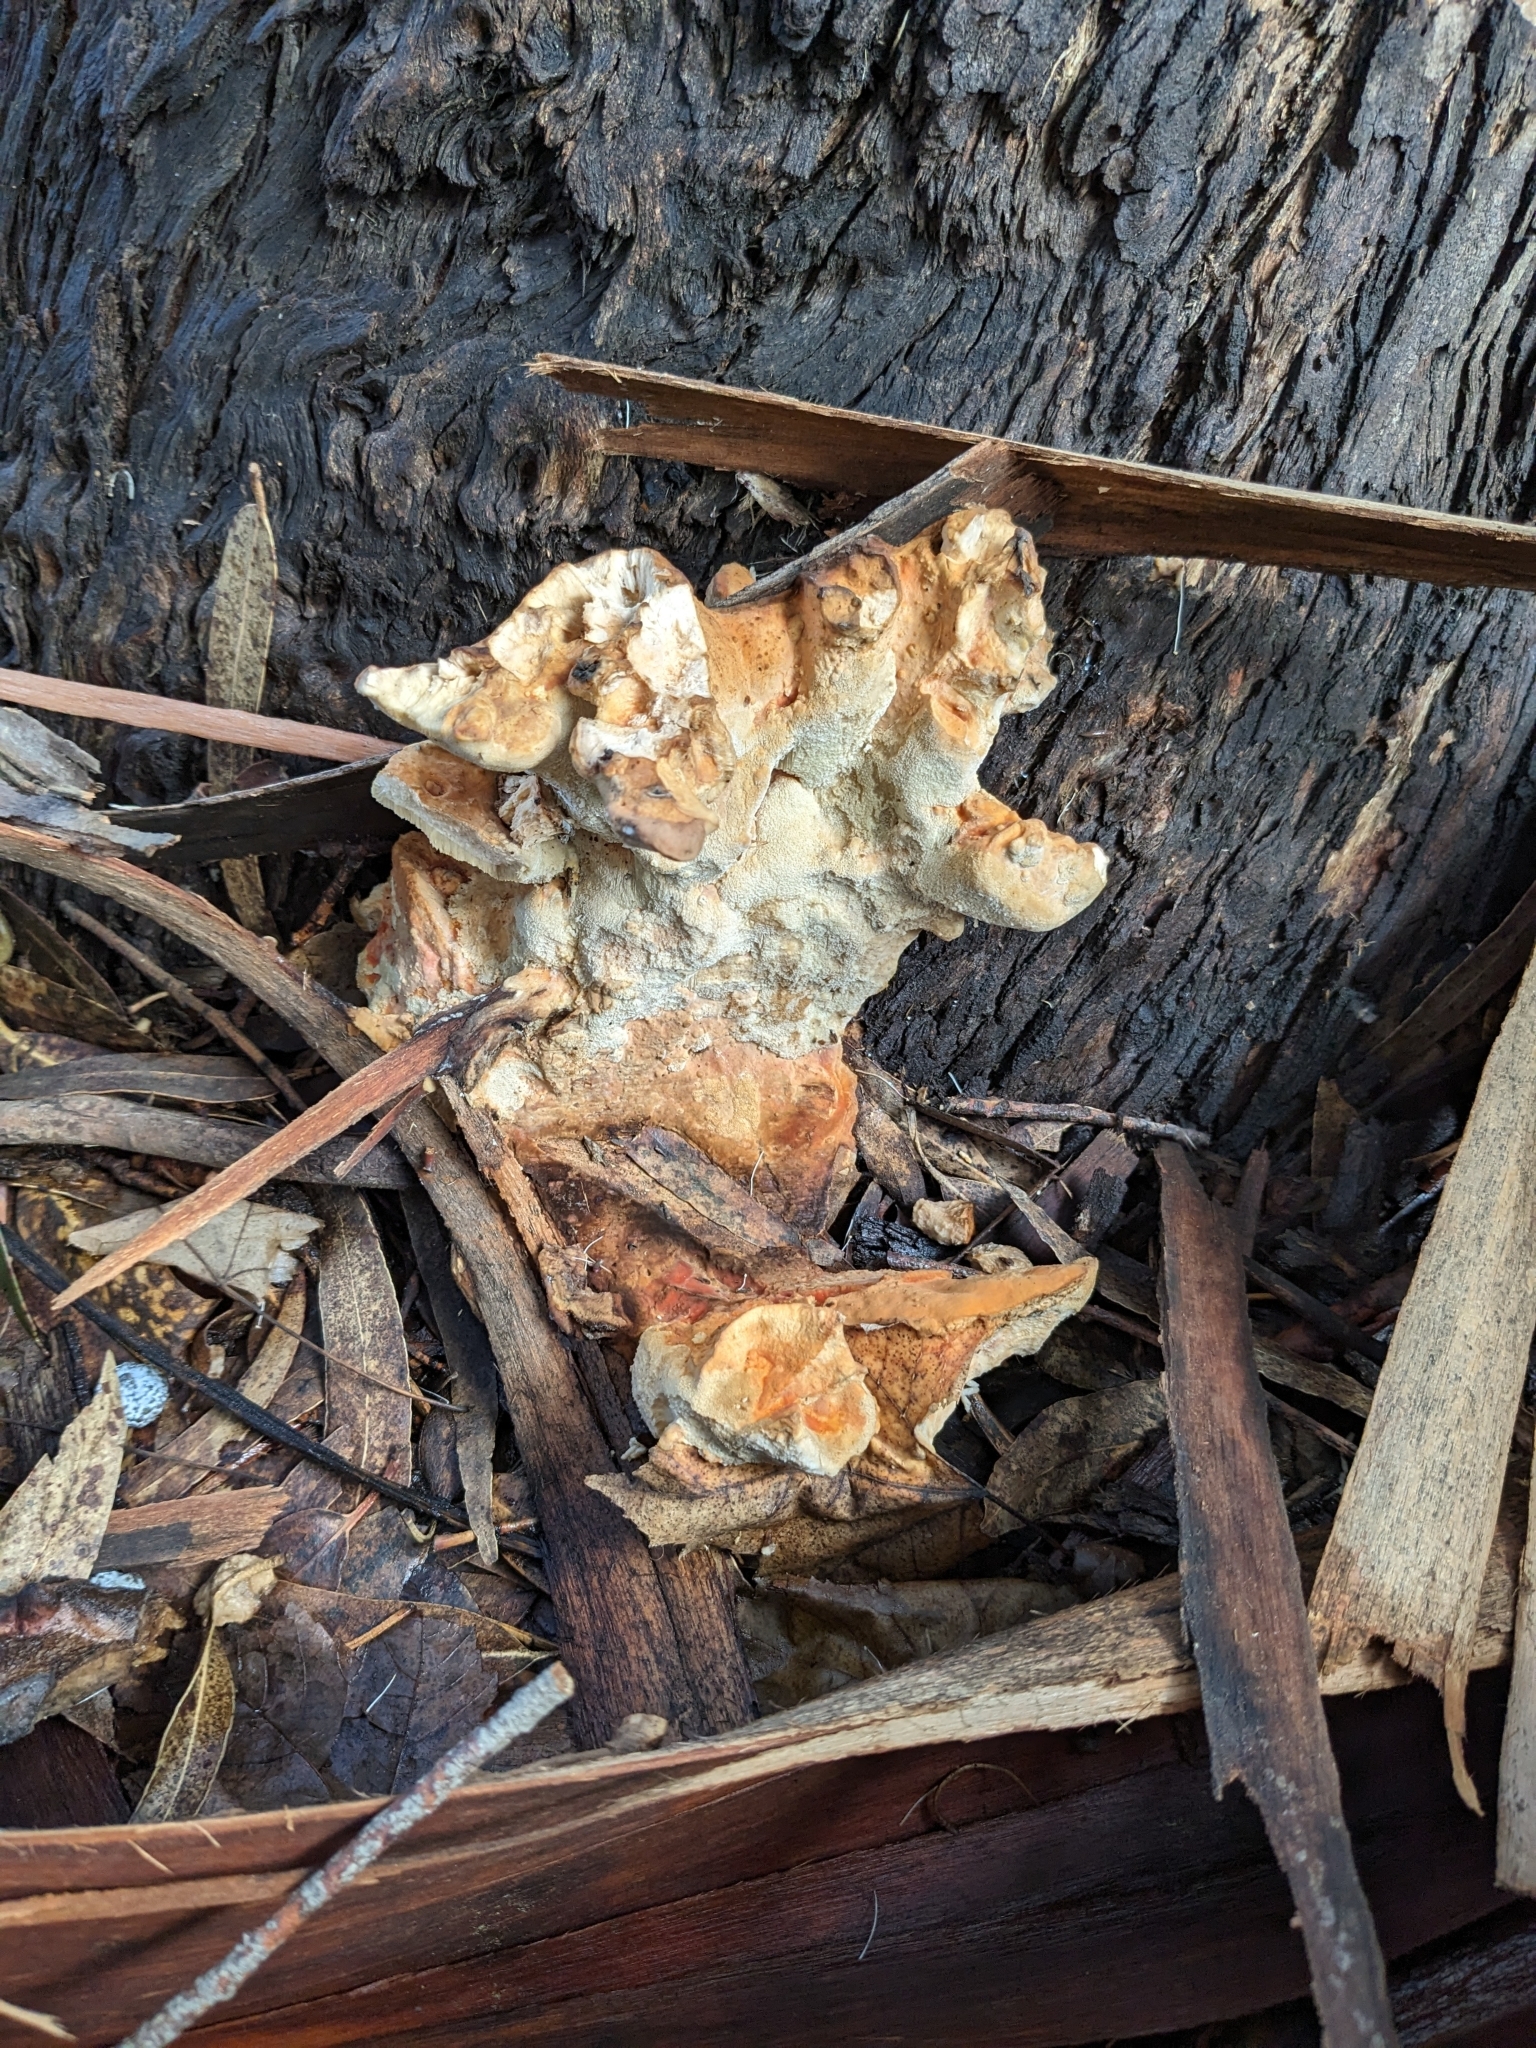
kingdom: Fungi
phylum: Basidiomycota
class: Agaricomycetes
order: Polyporales
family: Laetiporaceae
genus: Laetiporus
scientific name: Laetiporus gilbertsonii
